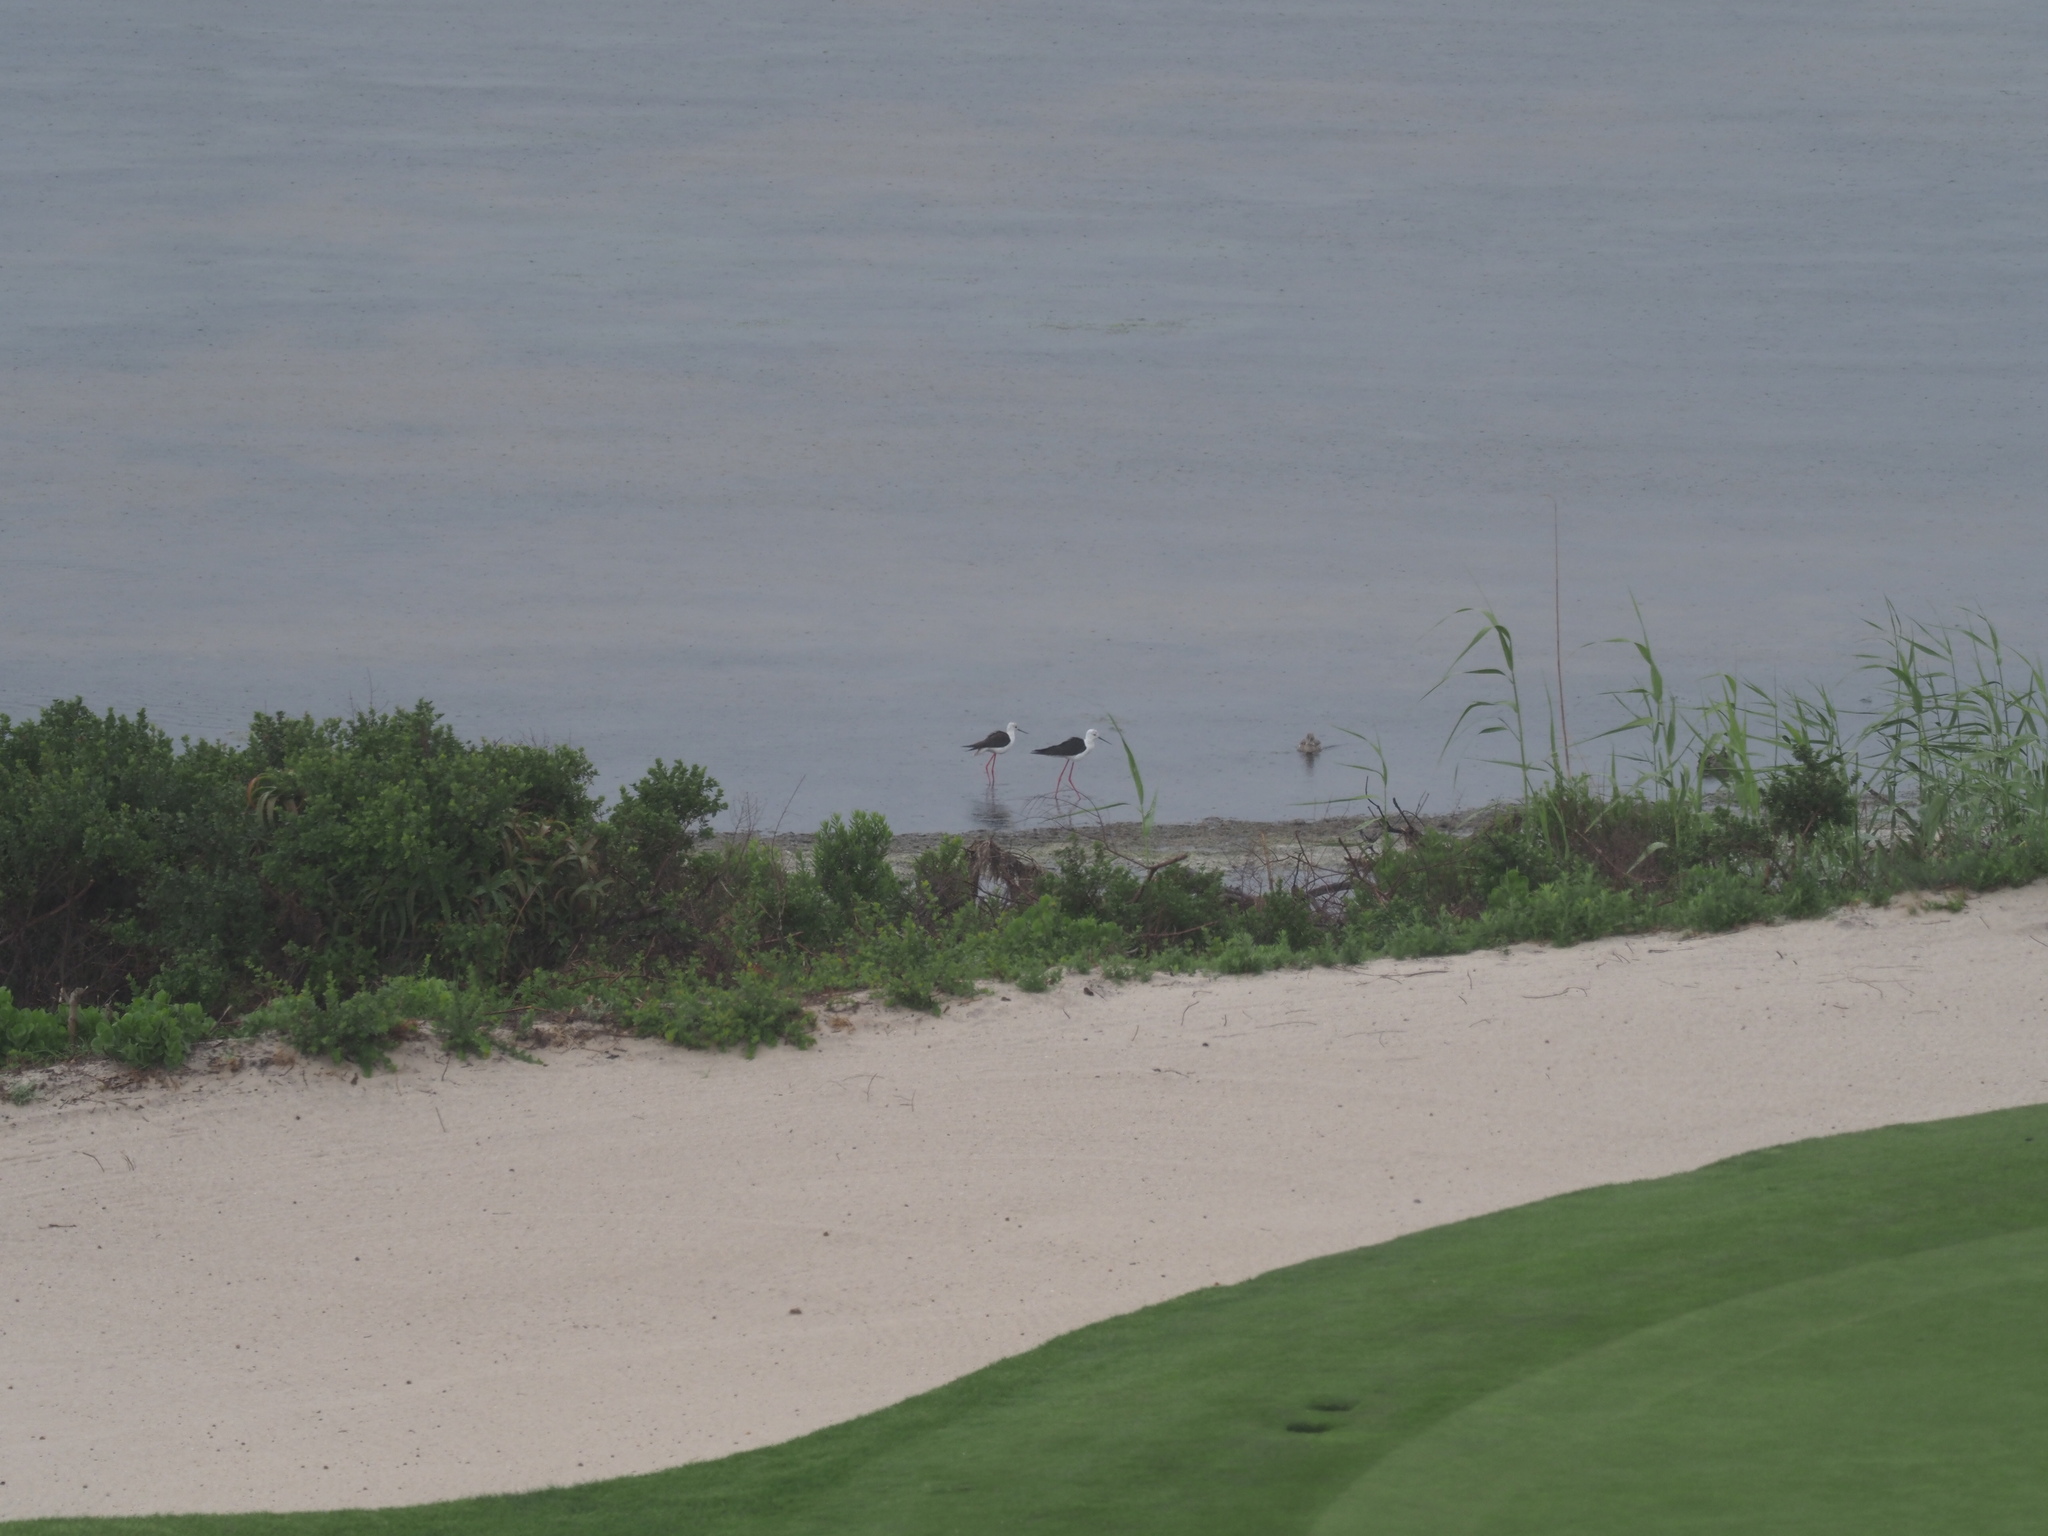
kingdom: Animalia
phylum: Chordata
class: Aves
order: Charadriiformes
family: Recurvirostridae
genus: Himantopus
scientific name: Himantopus himantopus
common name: Black-winged stilt
